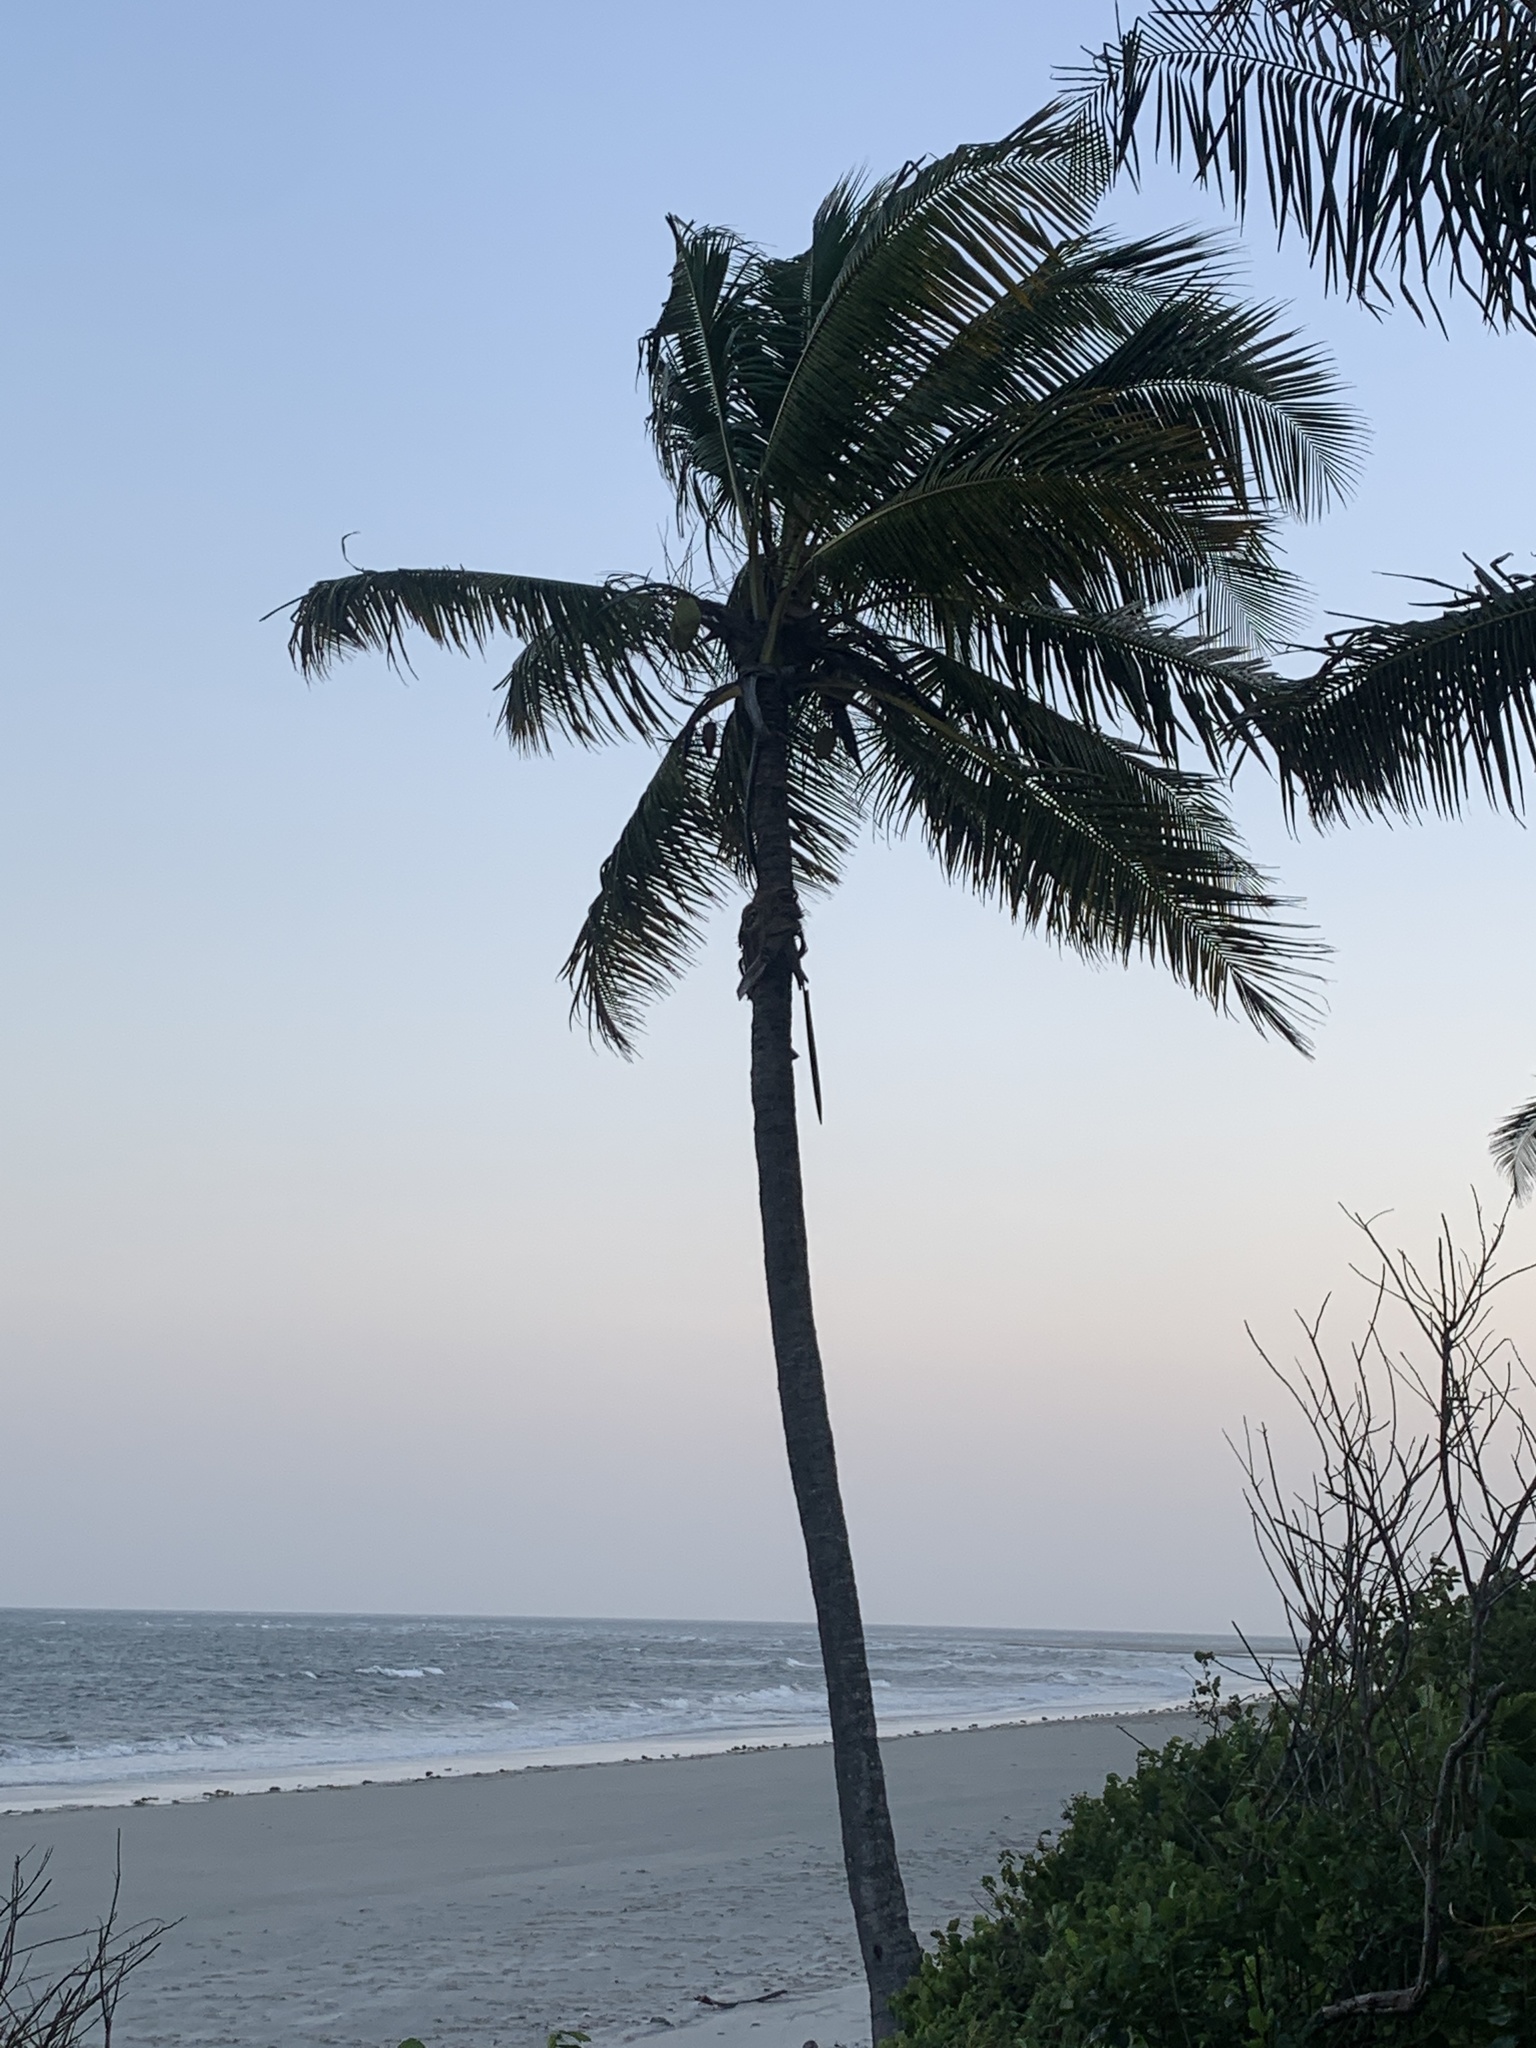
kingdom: Plantae
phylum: Tracheophyta
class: Liliopsida
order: Arecales
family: Arecaceae
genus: Cocos
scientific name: Cocos nucifera
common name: Coconut palm
